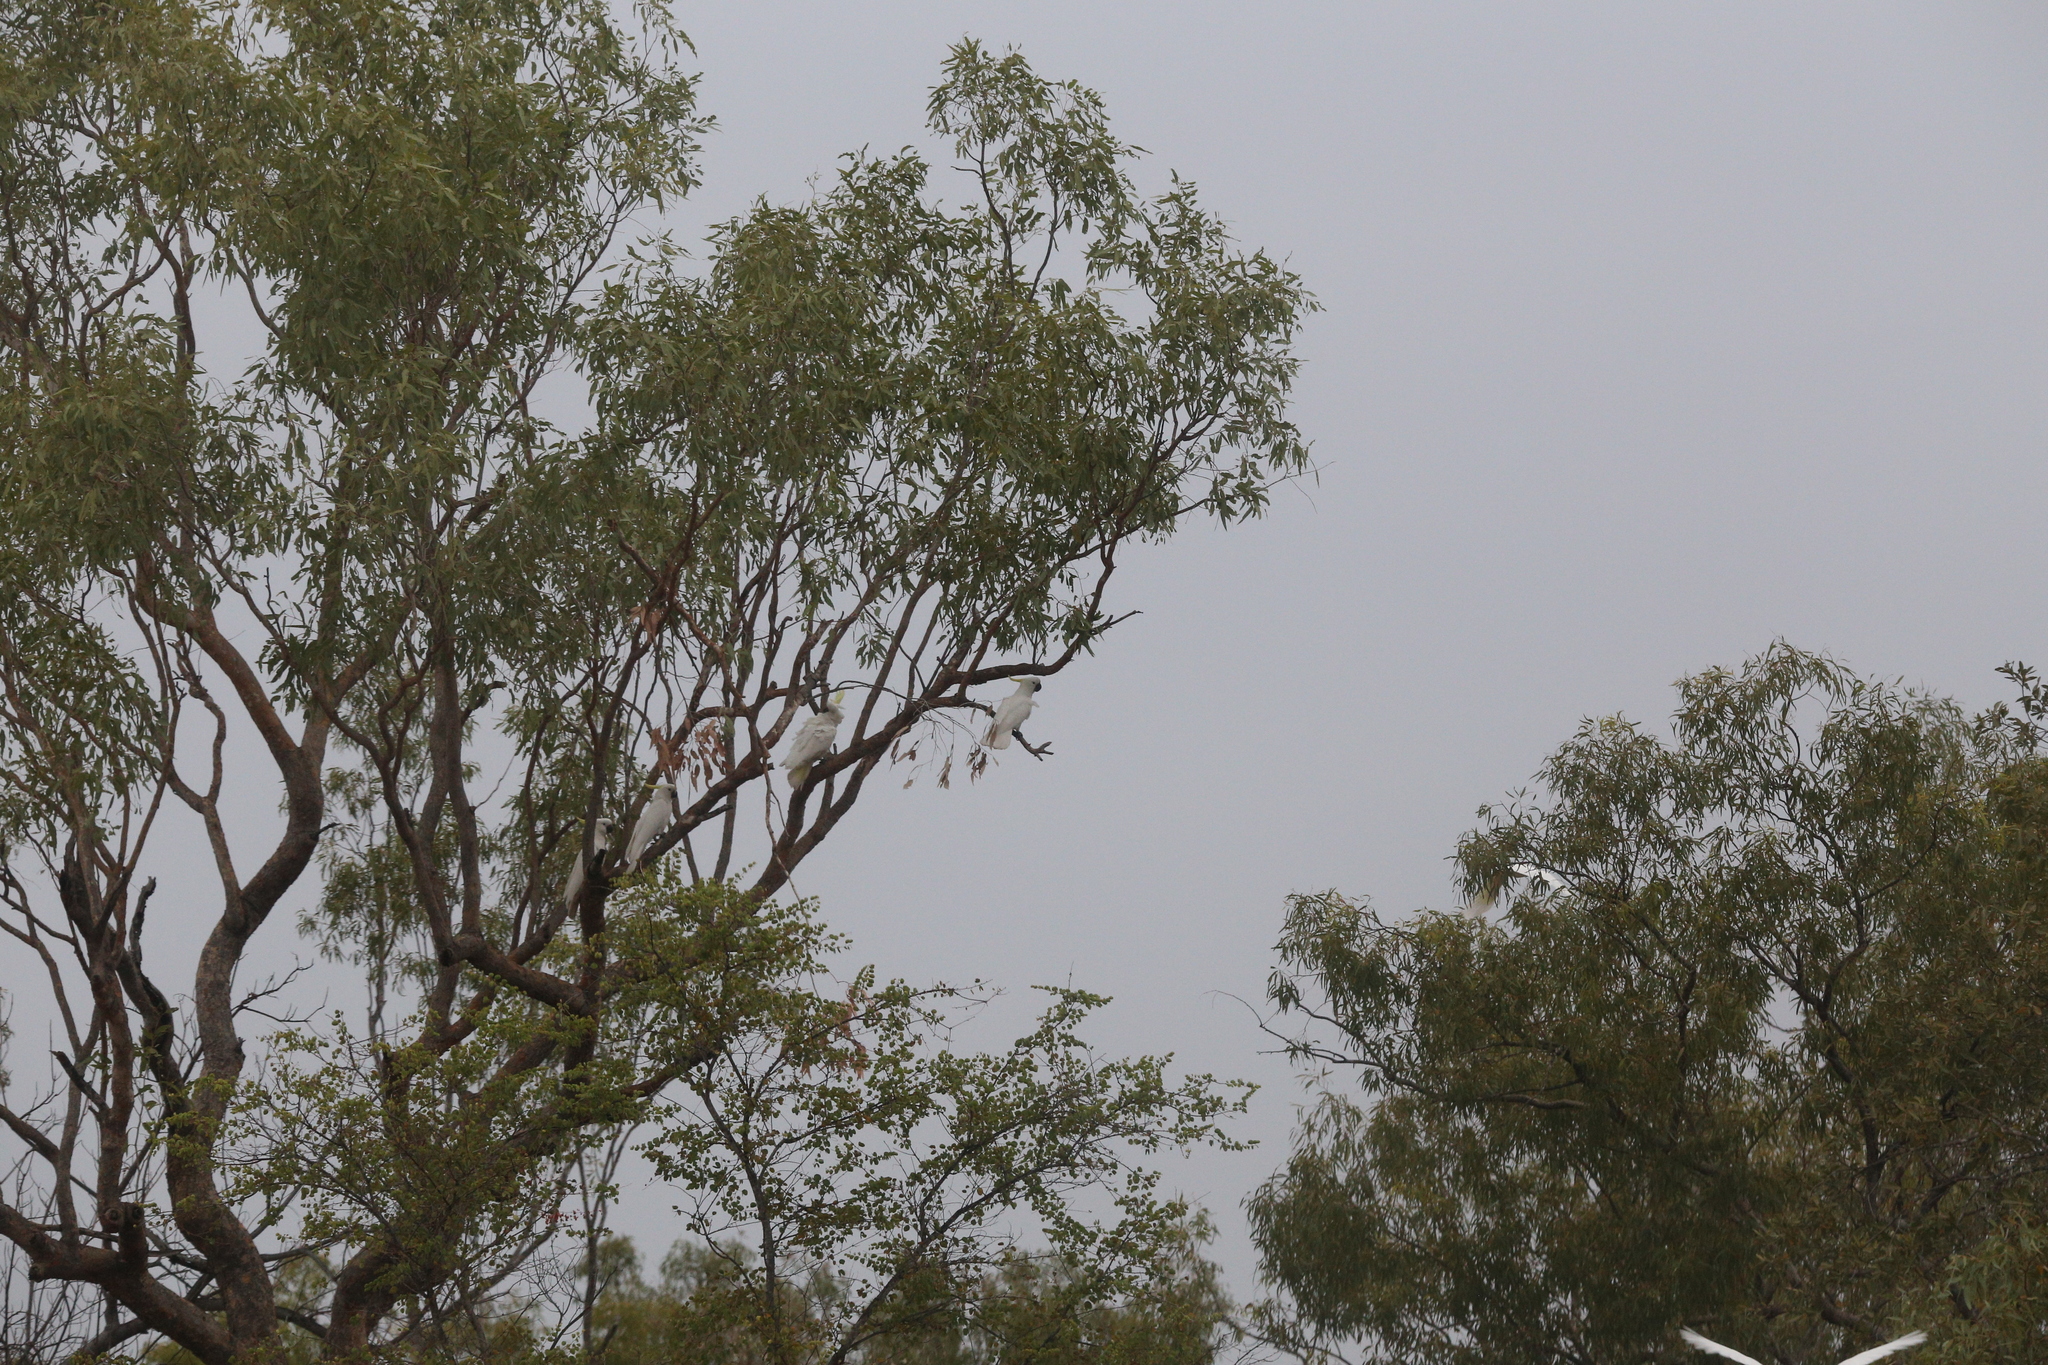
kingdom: Animalia
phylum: Chordata
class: Aves
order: Psittaciformes
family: Psittacidae
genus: Cacatua
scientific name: Cacatua galerita
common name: Sulphur-crested cockatoo
